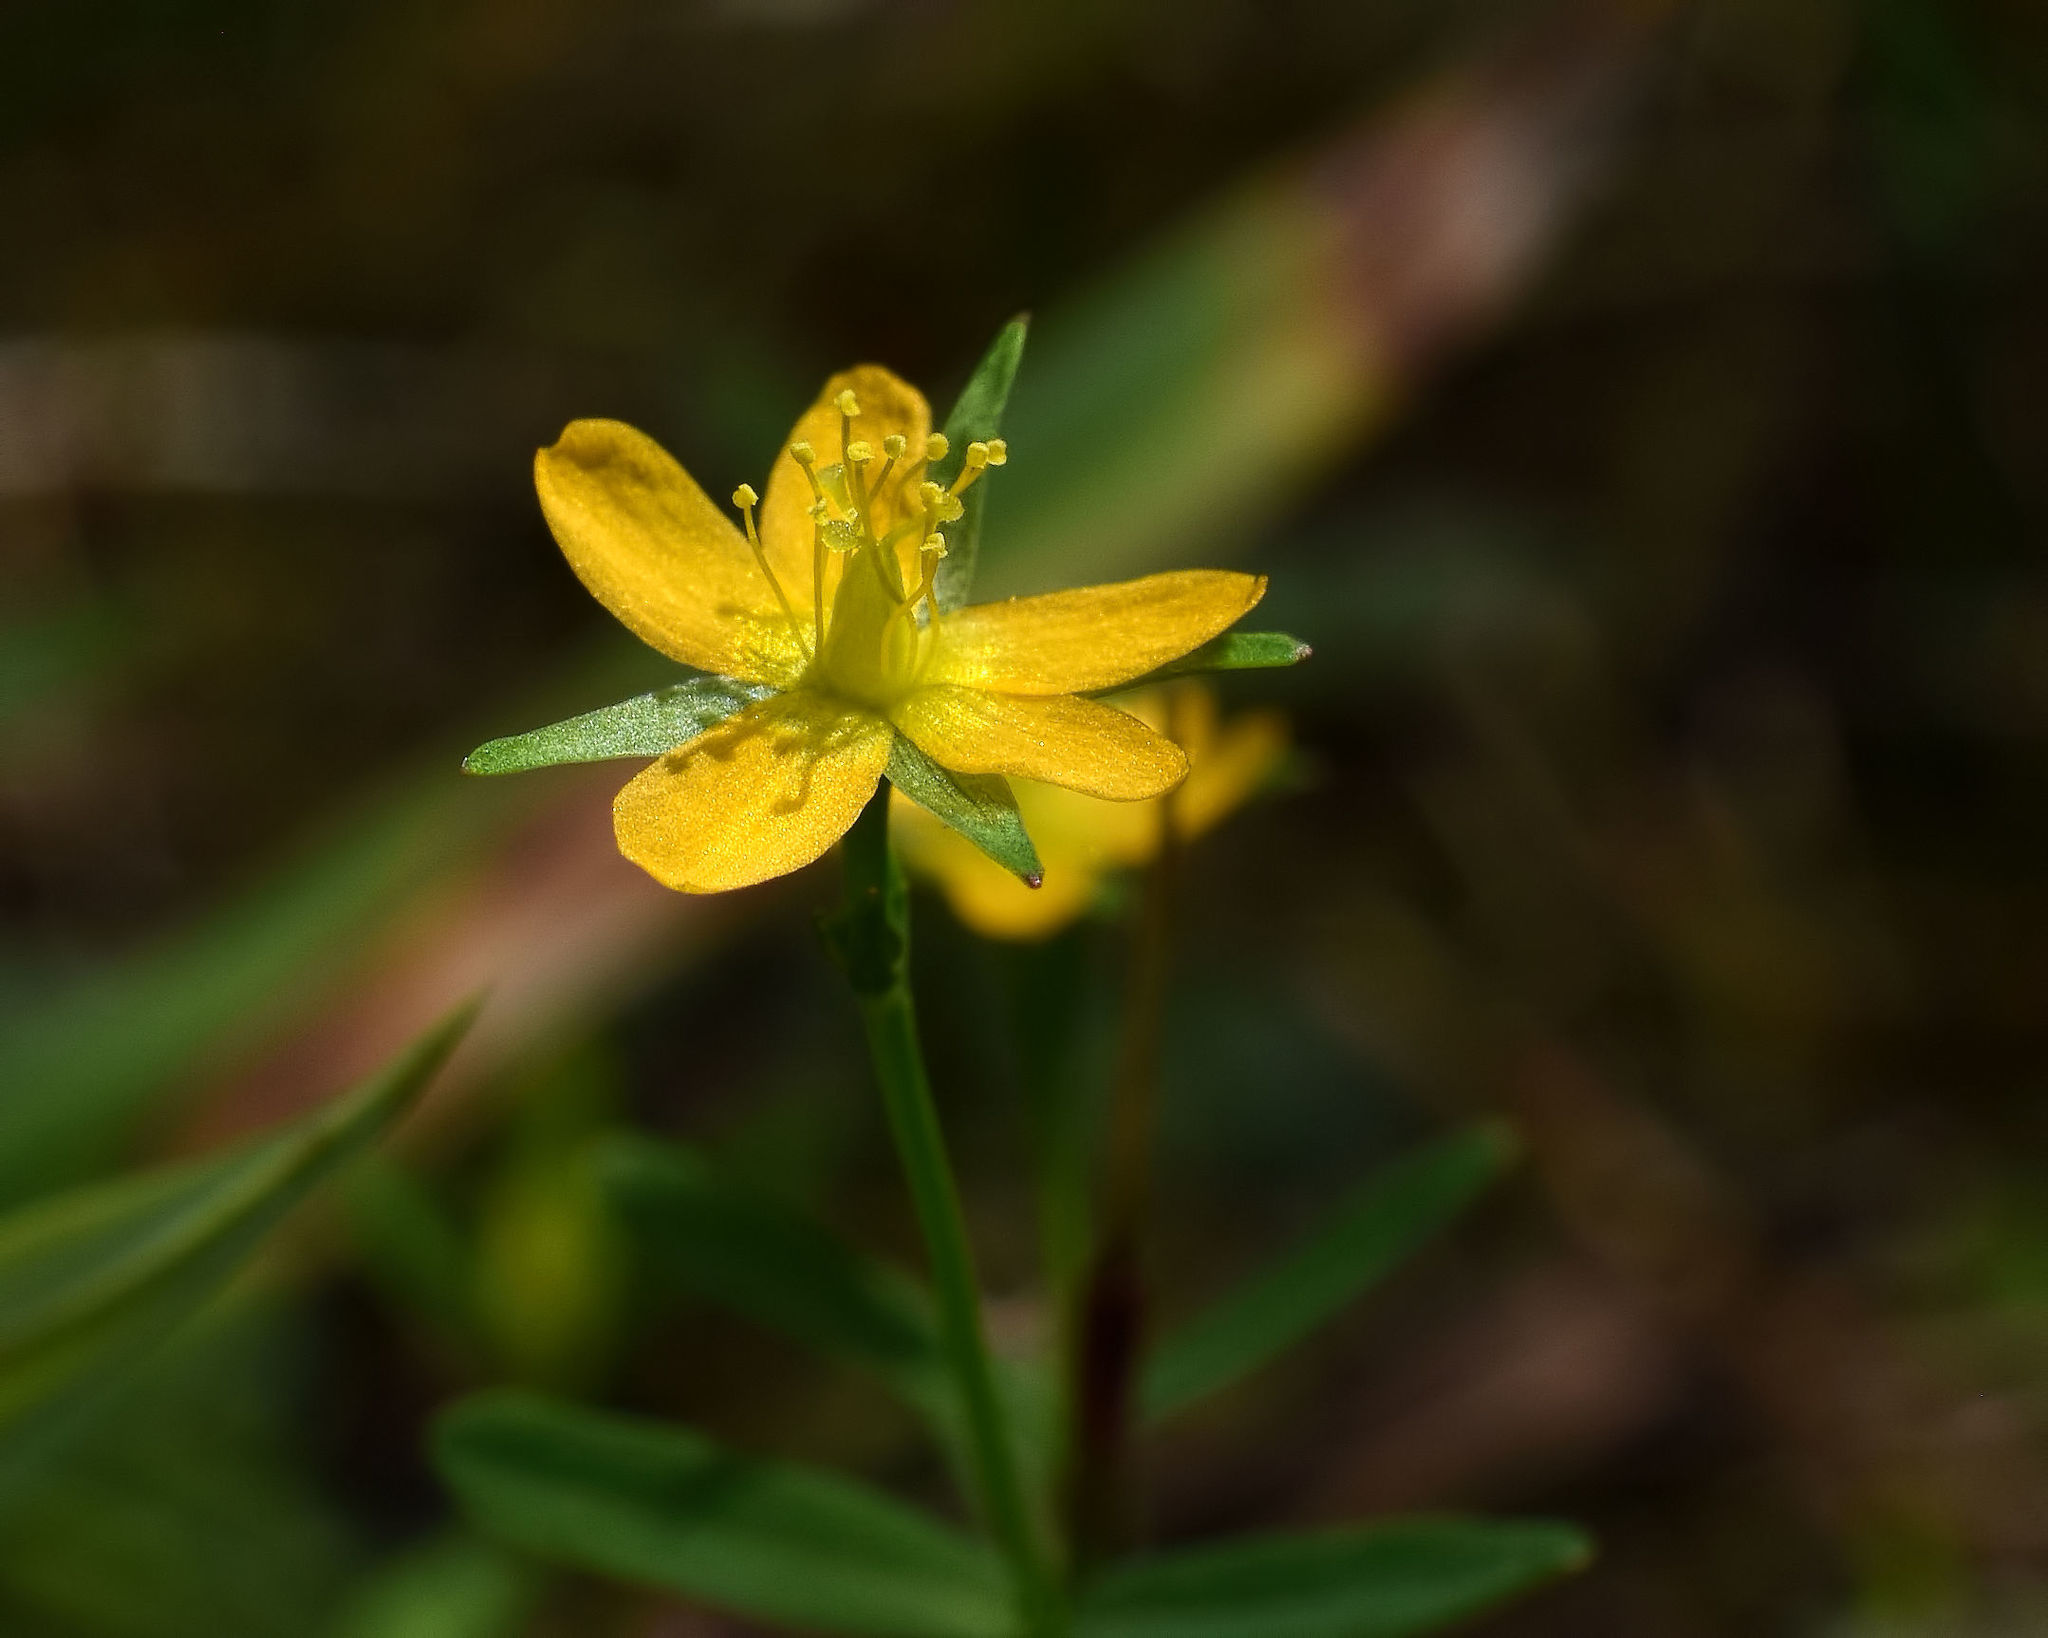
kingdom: Plantae
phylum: Tracheophyta
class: Magnoliopsida
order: Malpighiales
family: Hypericaceae
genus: Hypericum
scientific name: Hypericum canadense
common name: Irish st. john's-wort
